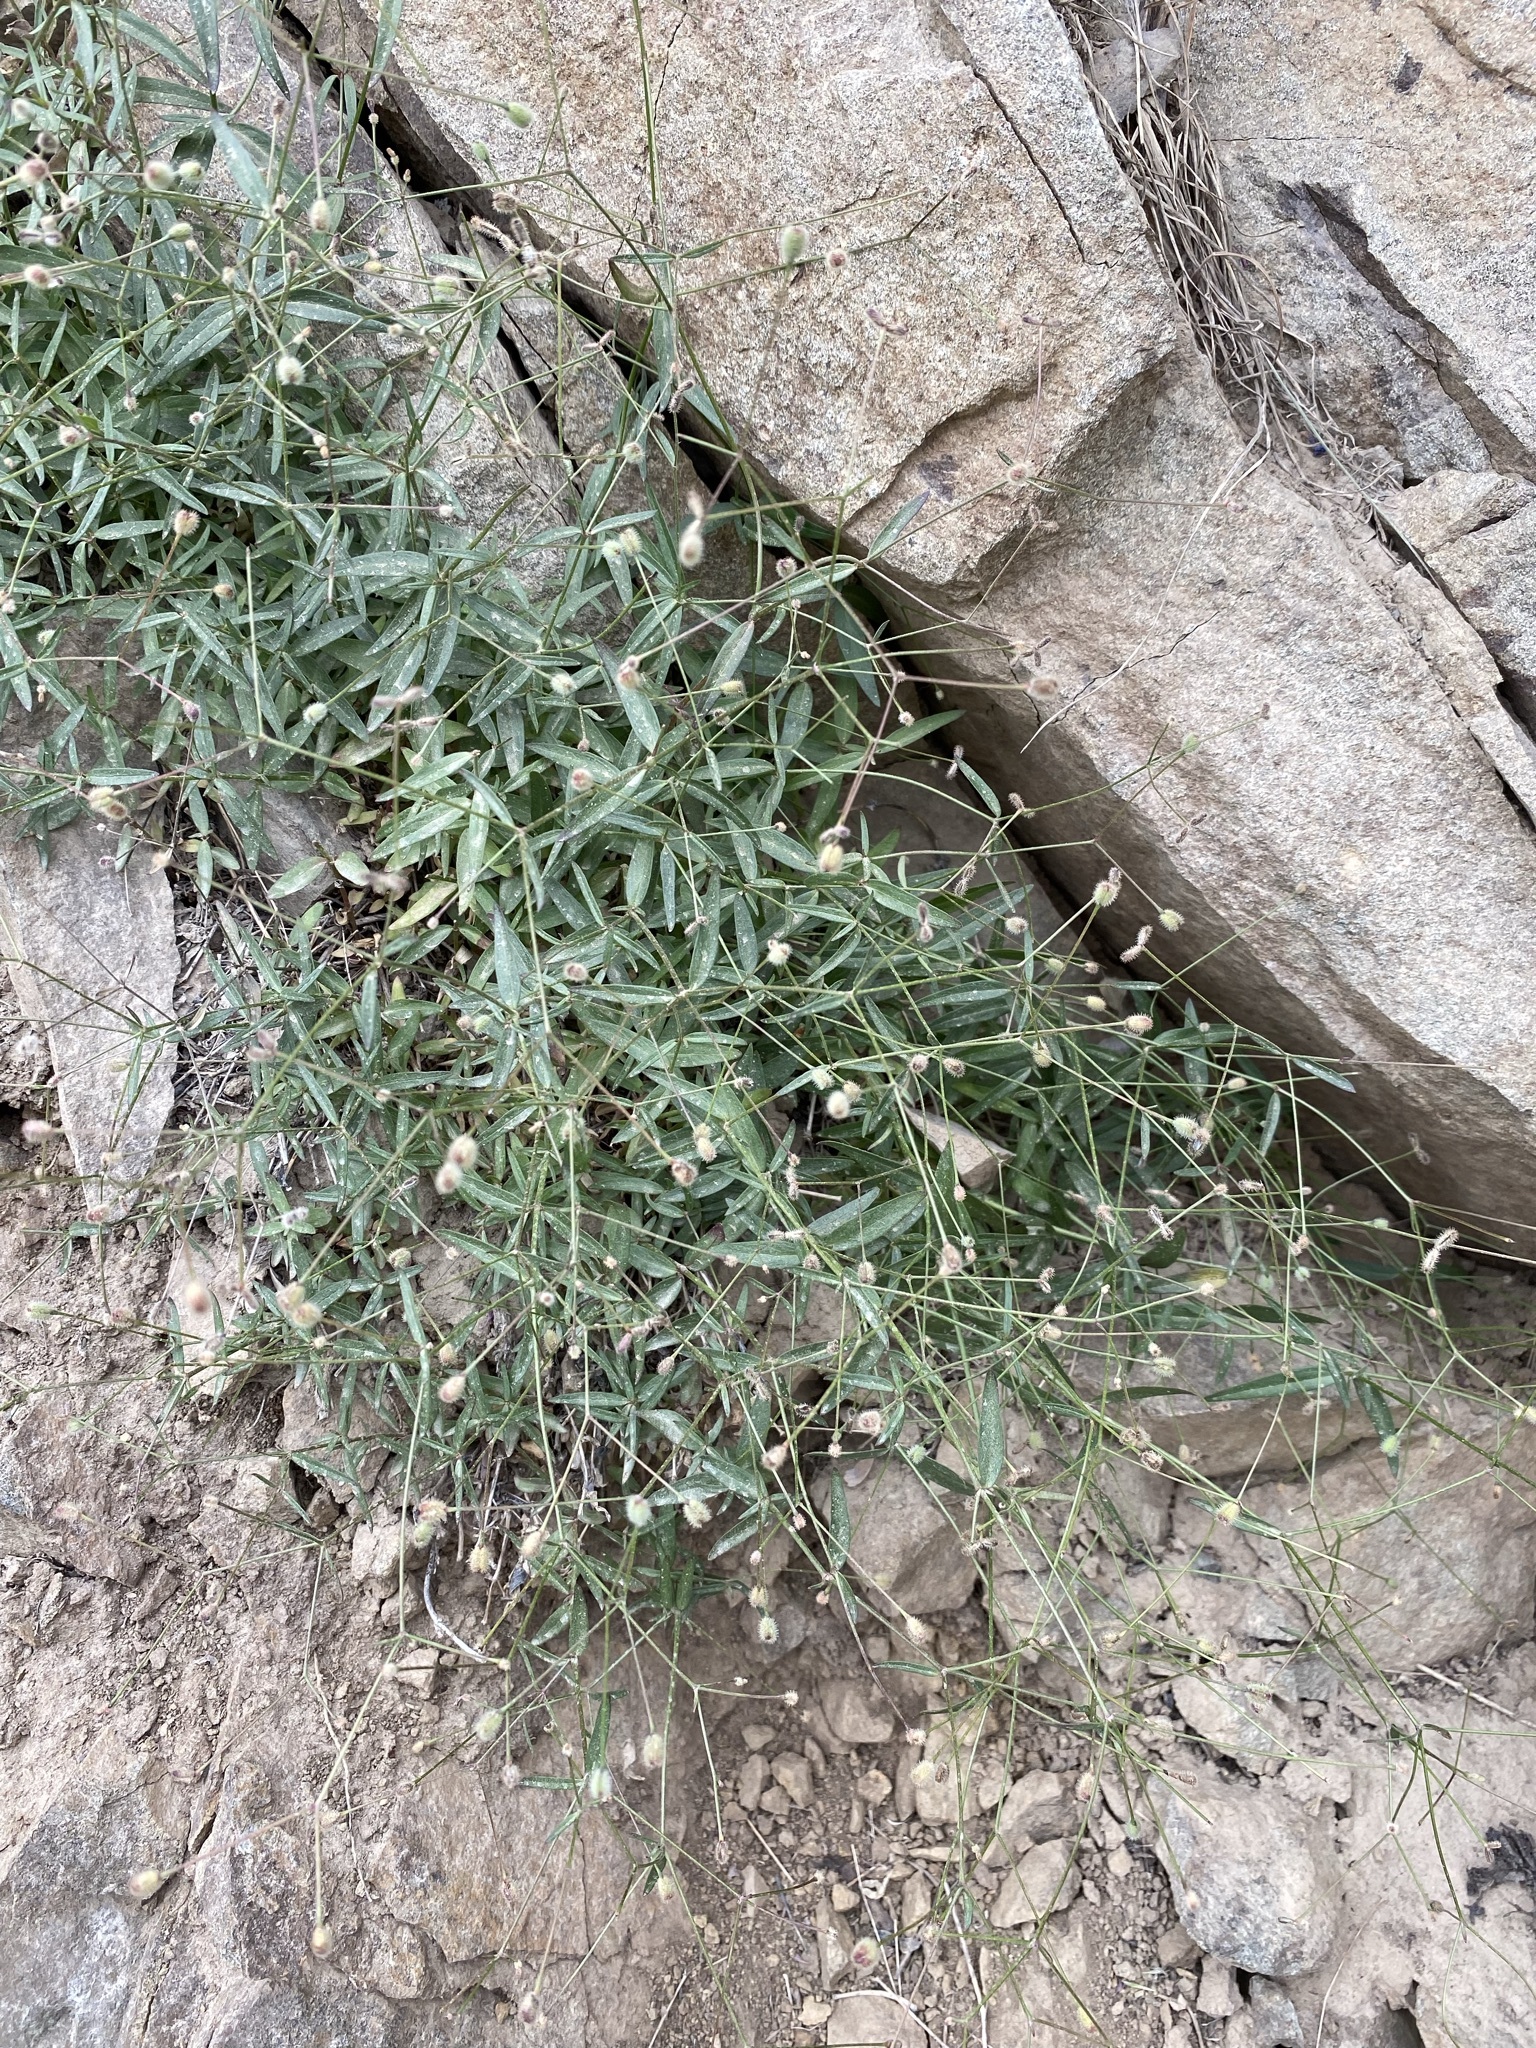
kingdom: Plantae
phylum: Tracheophyta
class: Magnoliopsida
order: Gentianales
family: Rubiaceae
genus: Kelloggia
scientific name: Kelloggia galioides
